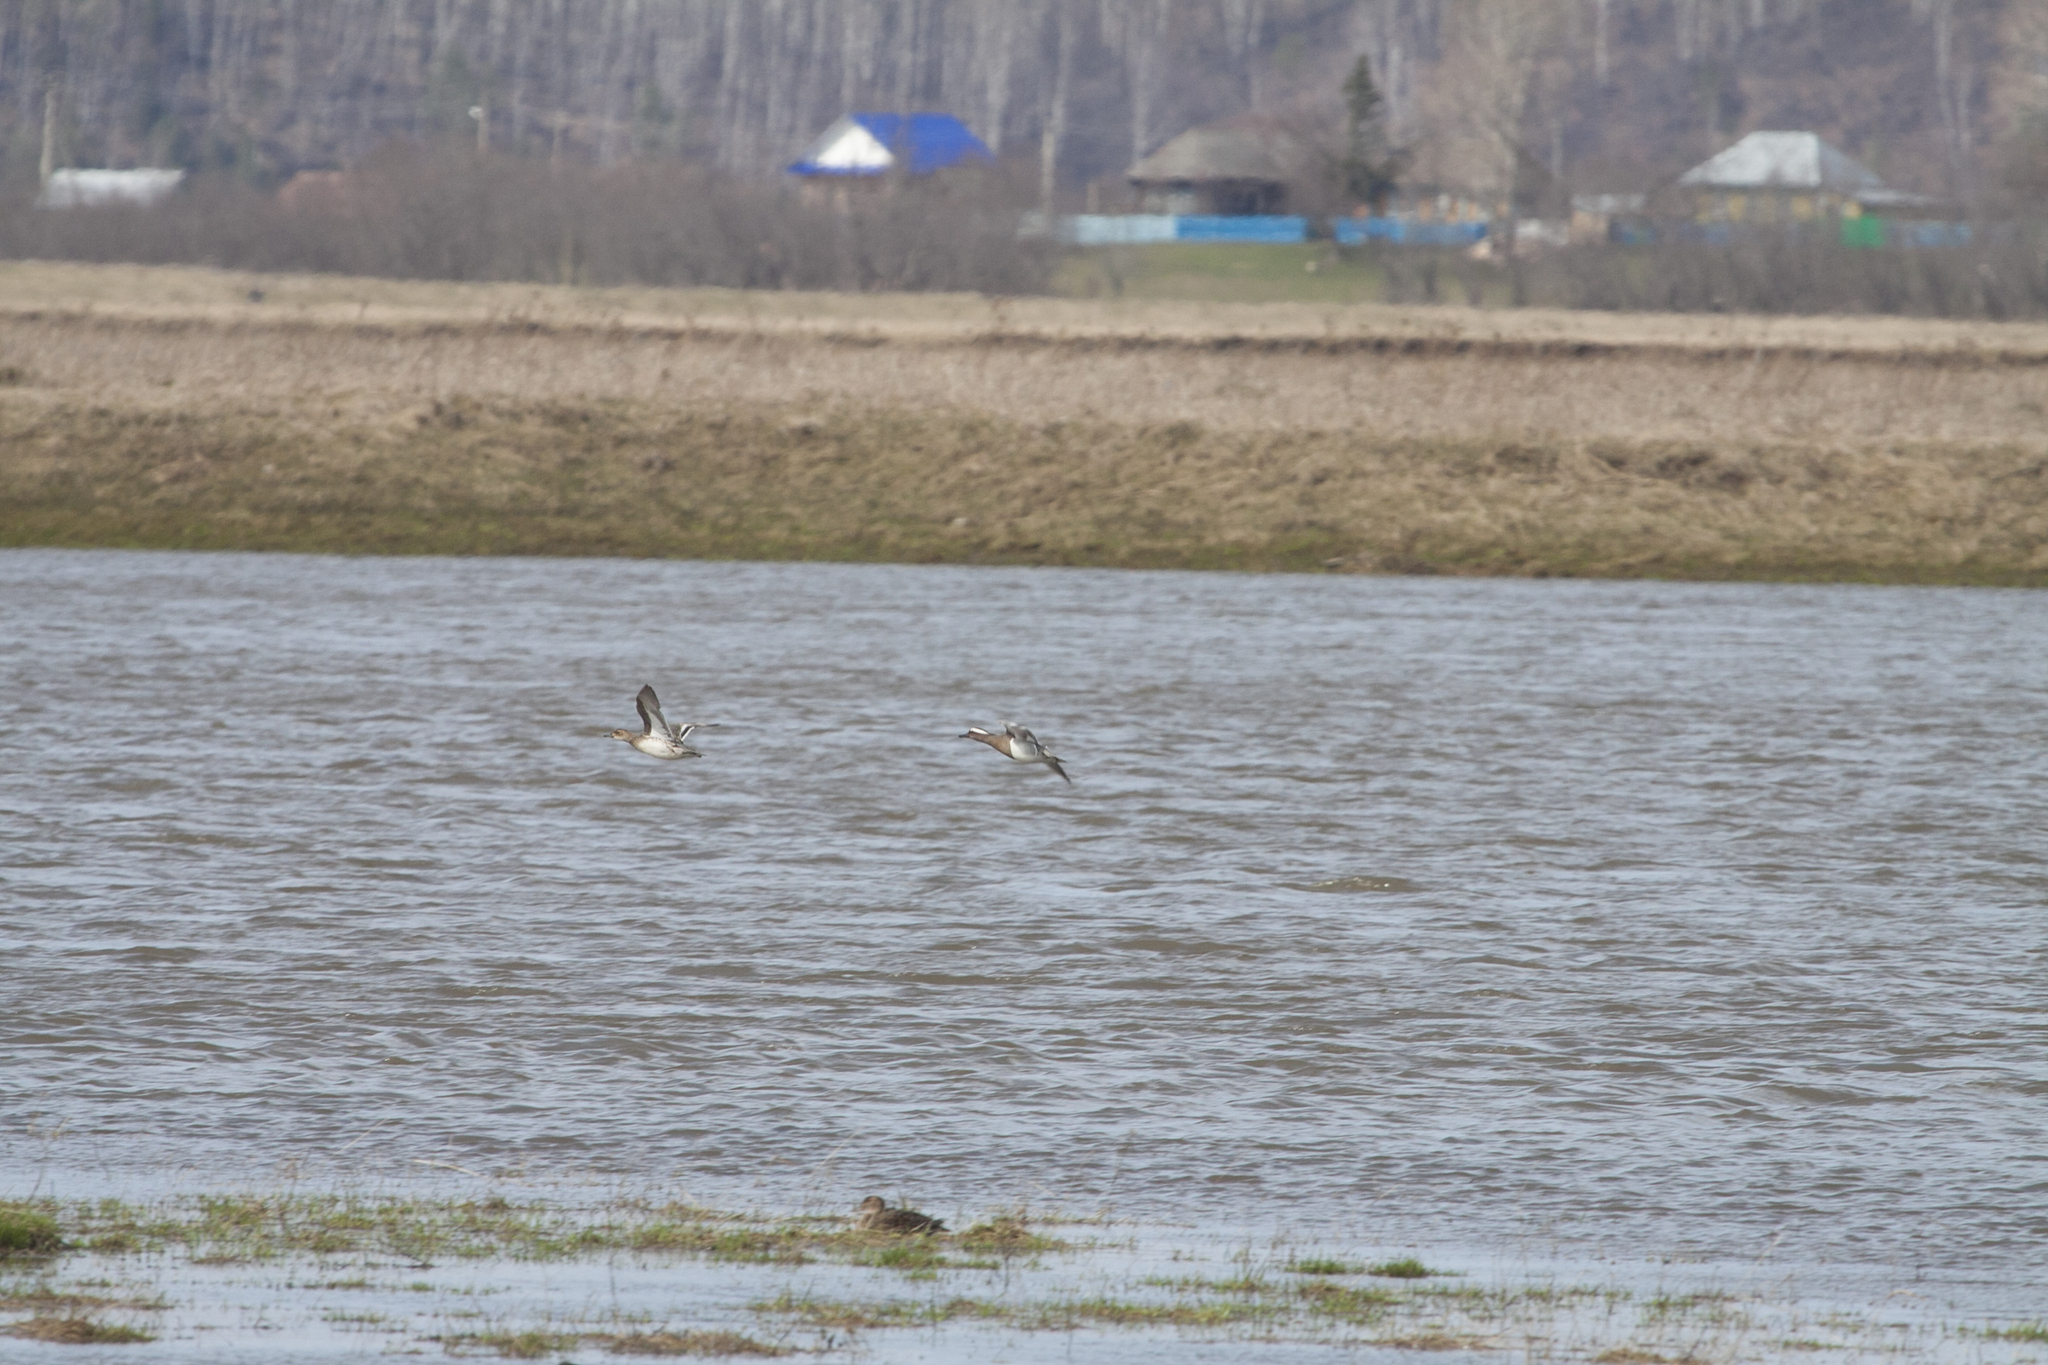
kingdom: Animalia
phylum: Chordata
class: Aves
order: Anseriformes
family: Anatidae
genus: Spatula
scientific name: Spatula querquedula
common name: Garganey
